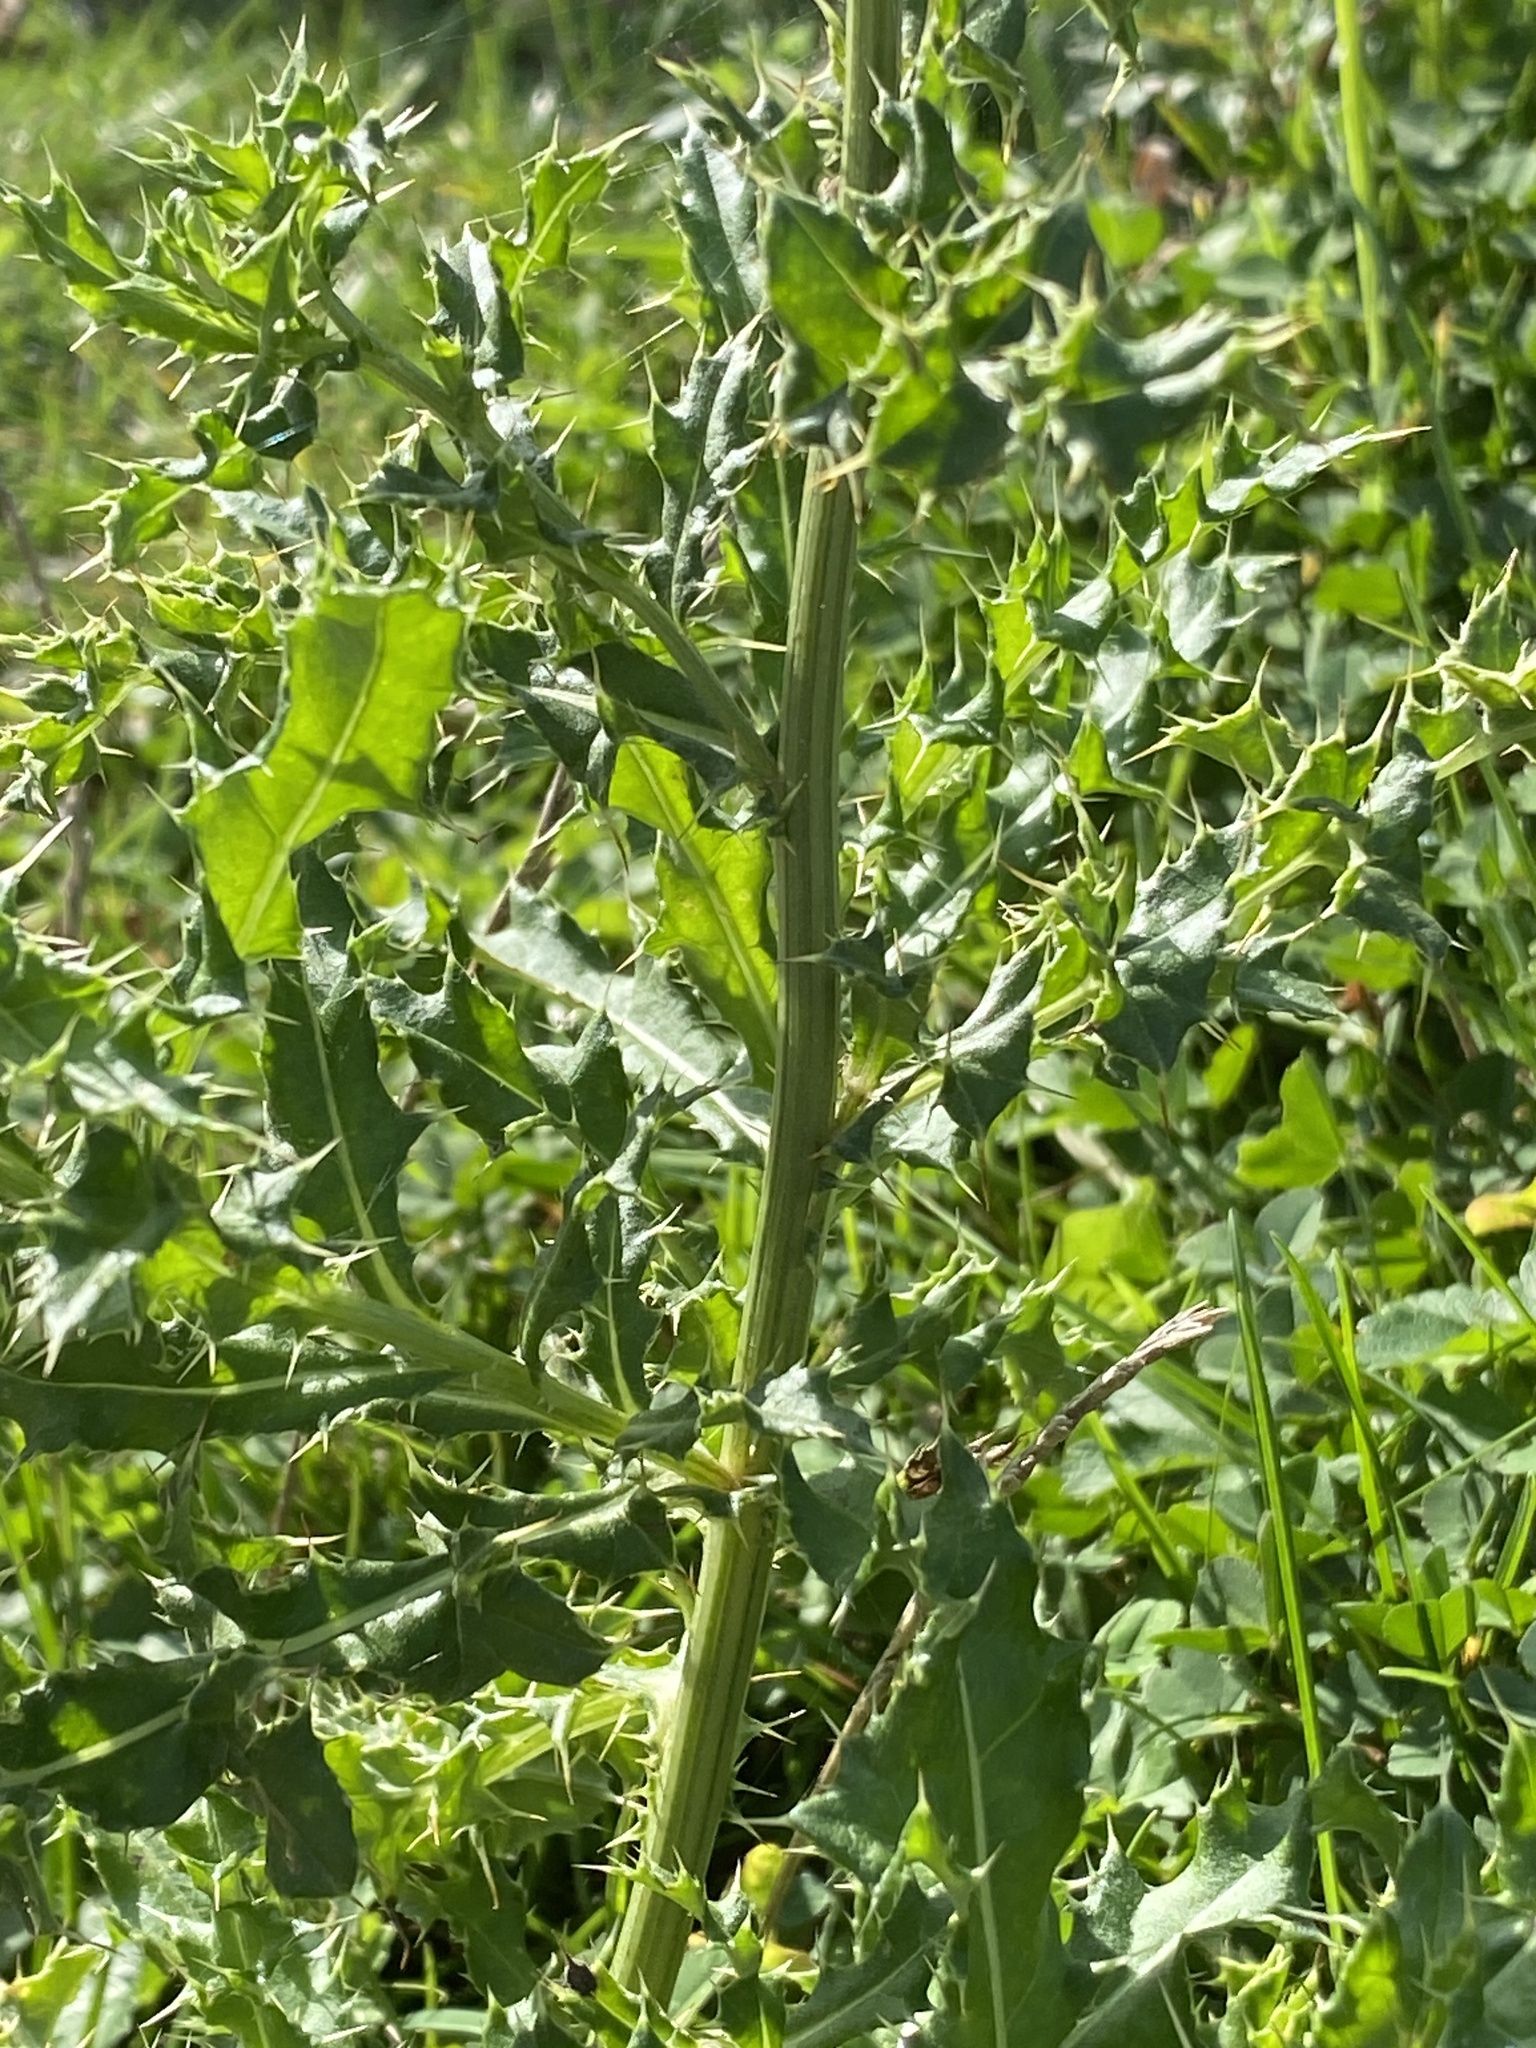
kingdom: Plantae
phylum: Tracheophyta
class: Magnoliopsida
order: Asterales
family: Asteraceae
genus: Cirsium
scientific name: Cirsium arvense
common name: Creeping thistle
